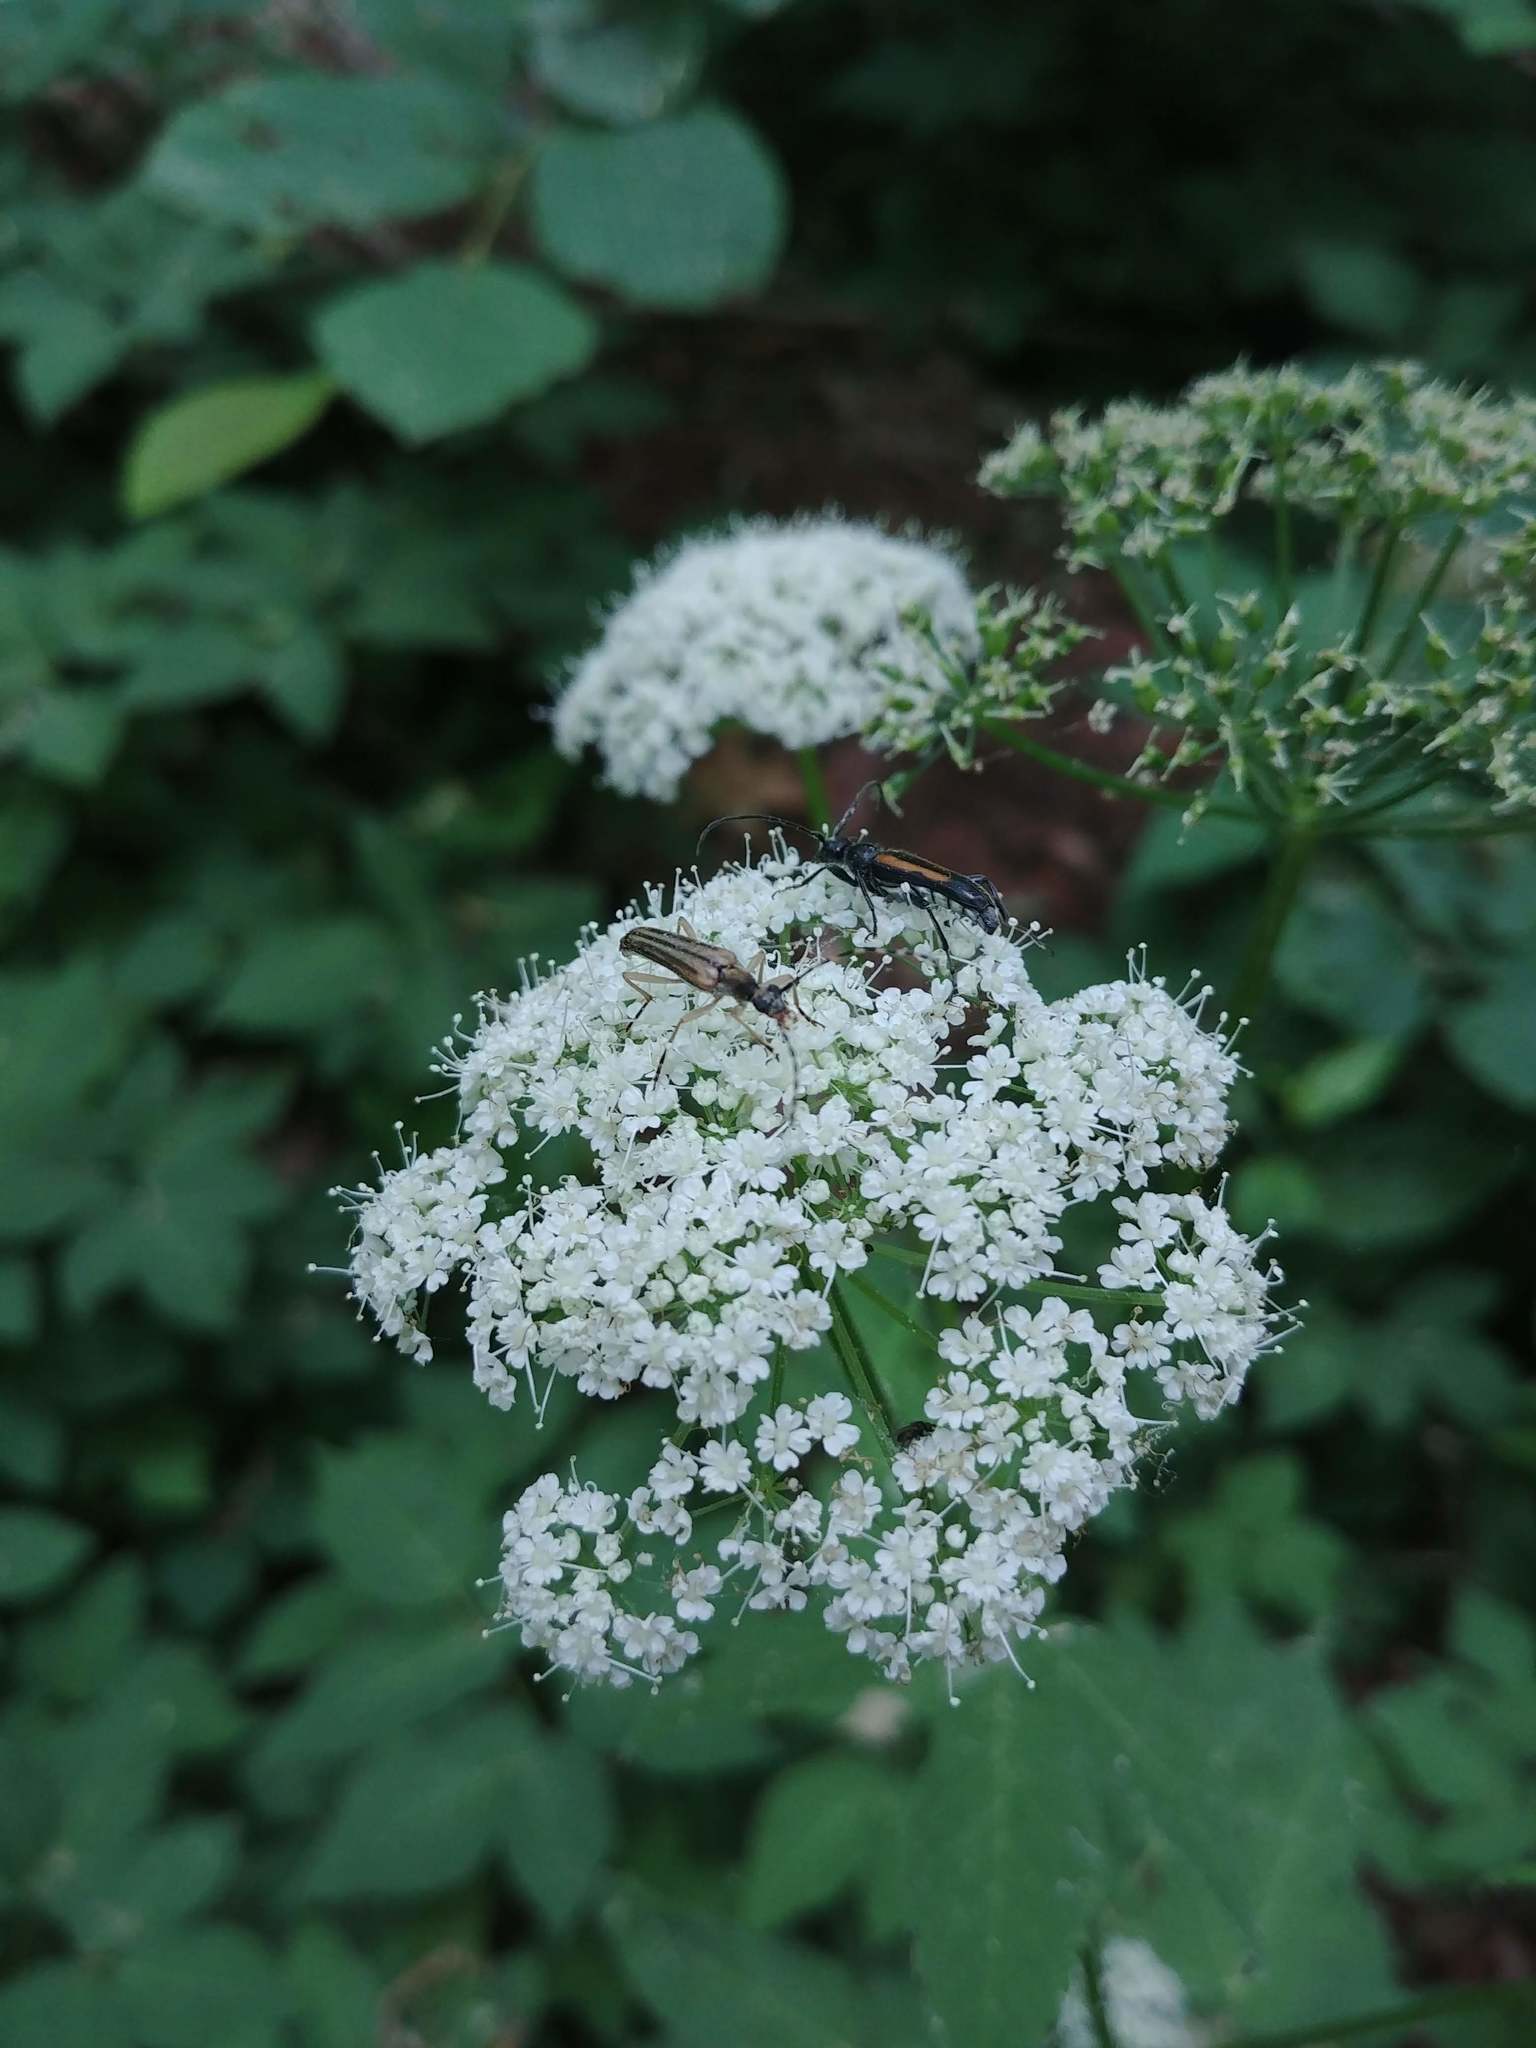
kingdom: Animalia
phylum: Arthropoda
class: Insecta
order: Coleoptera
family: Cerambycidae
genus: Strangalepta
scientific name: Strangalepta abbreviata
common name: Strangalepta flower longhorn beetle
